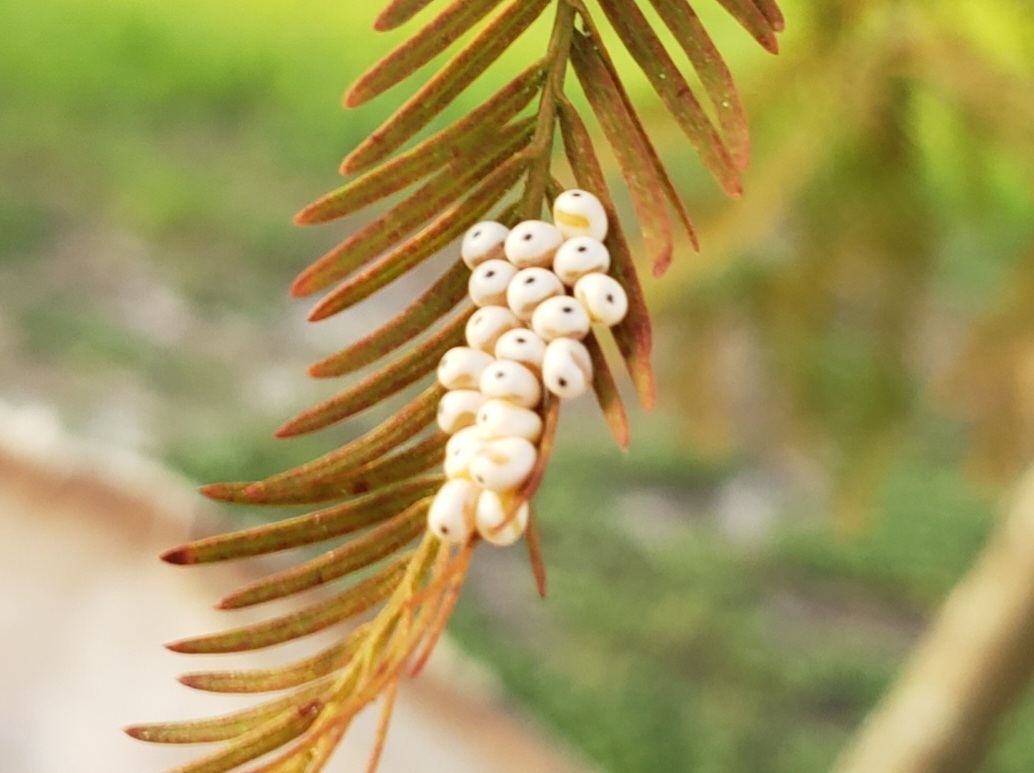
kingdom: Animalia
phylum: Arthropoda
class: Insecta
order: Lepidoptera
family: Saturniidae
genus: Automeris
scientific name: Automeris io
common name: Io moth
